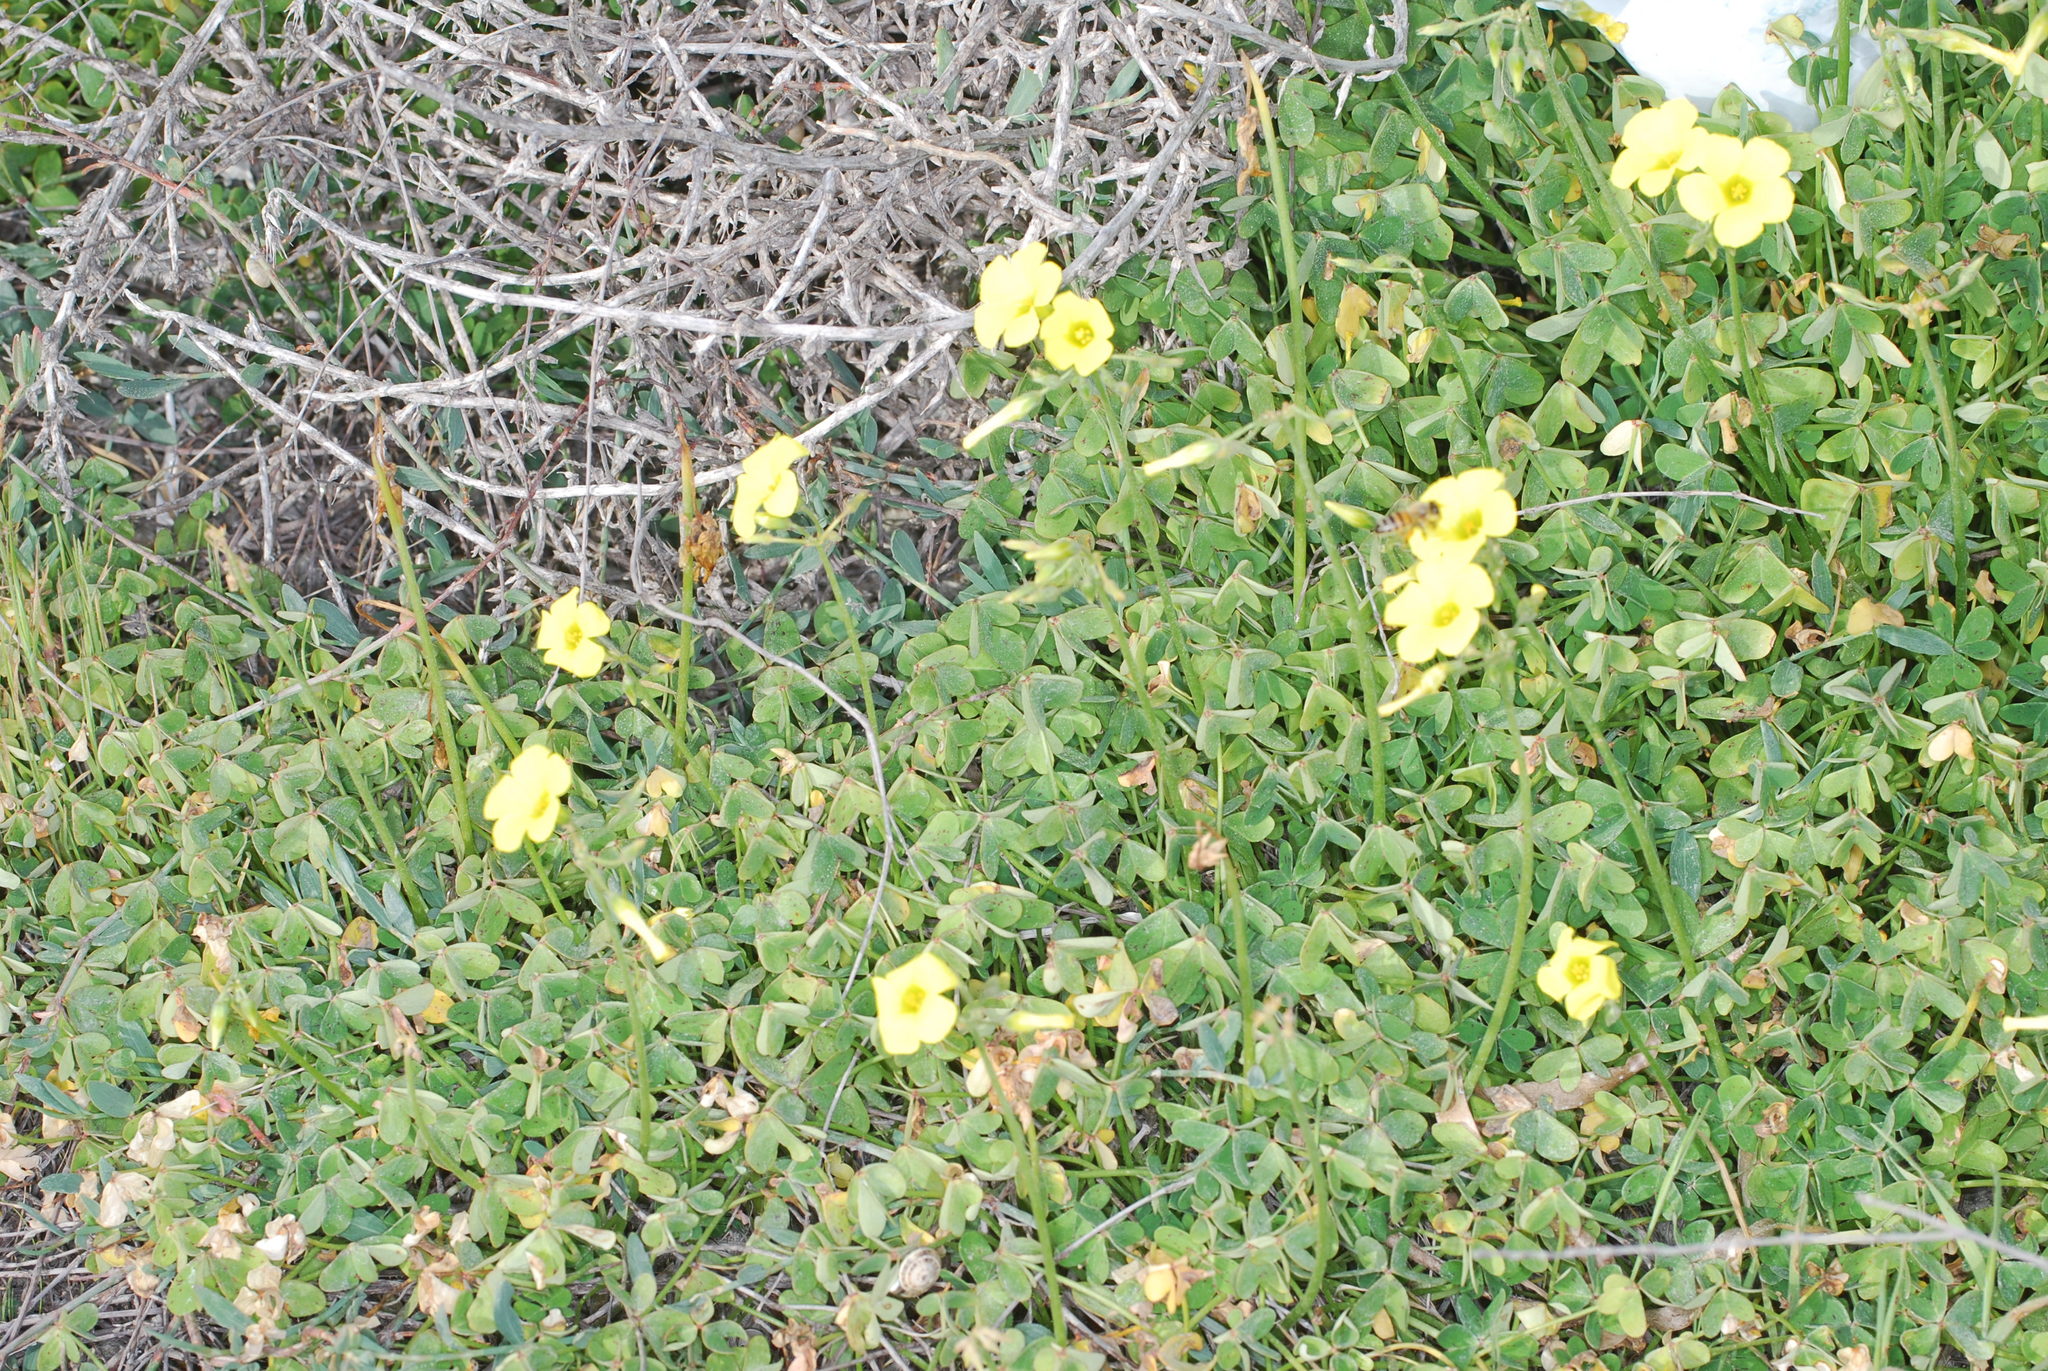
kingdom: Plantae
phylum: Tracheophyta
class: Magnoliopsida
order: Oxalidales
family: Oxalidaceae
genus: Oxalis
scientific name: Oxalis pes-caprae
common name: Bermuda-buttercup
